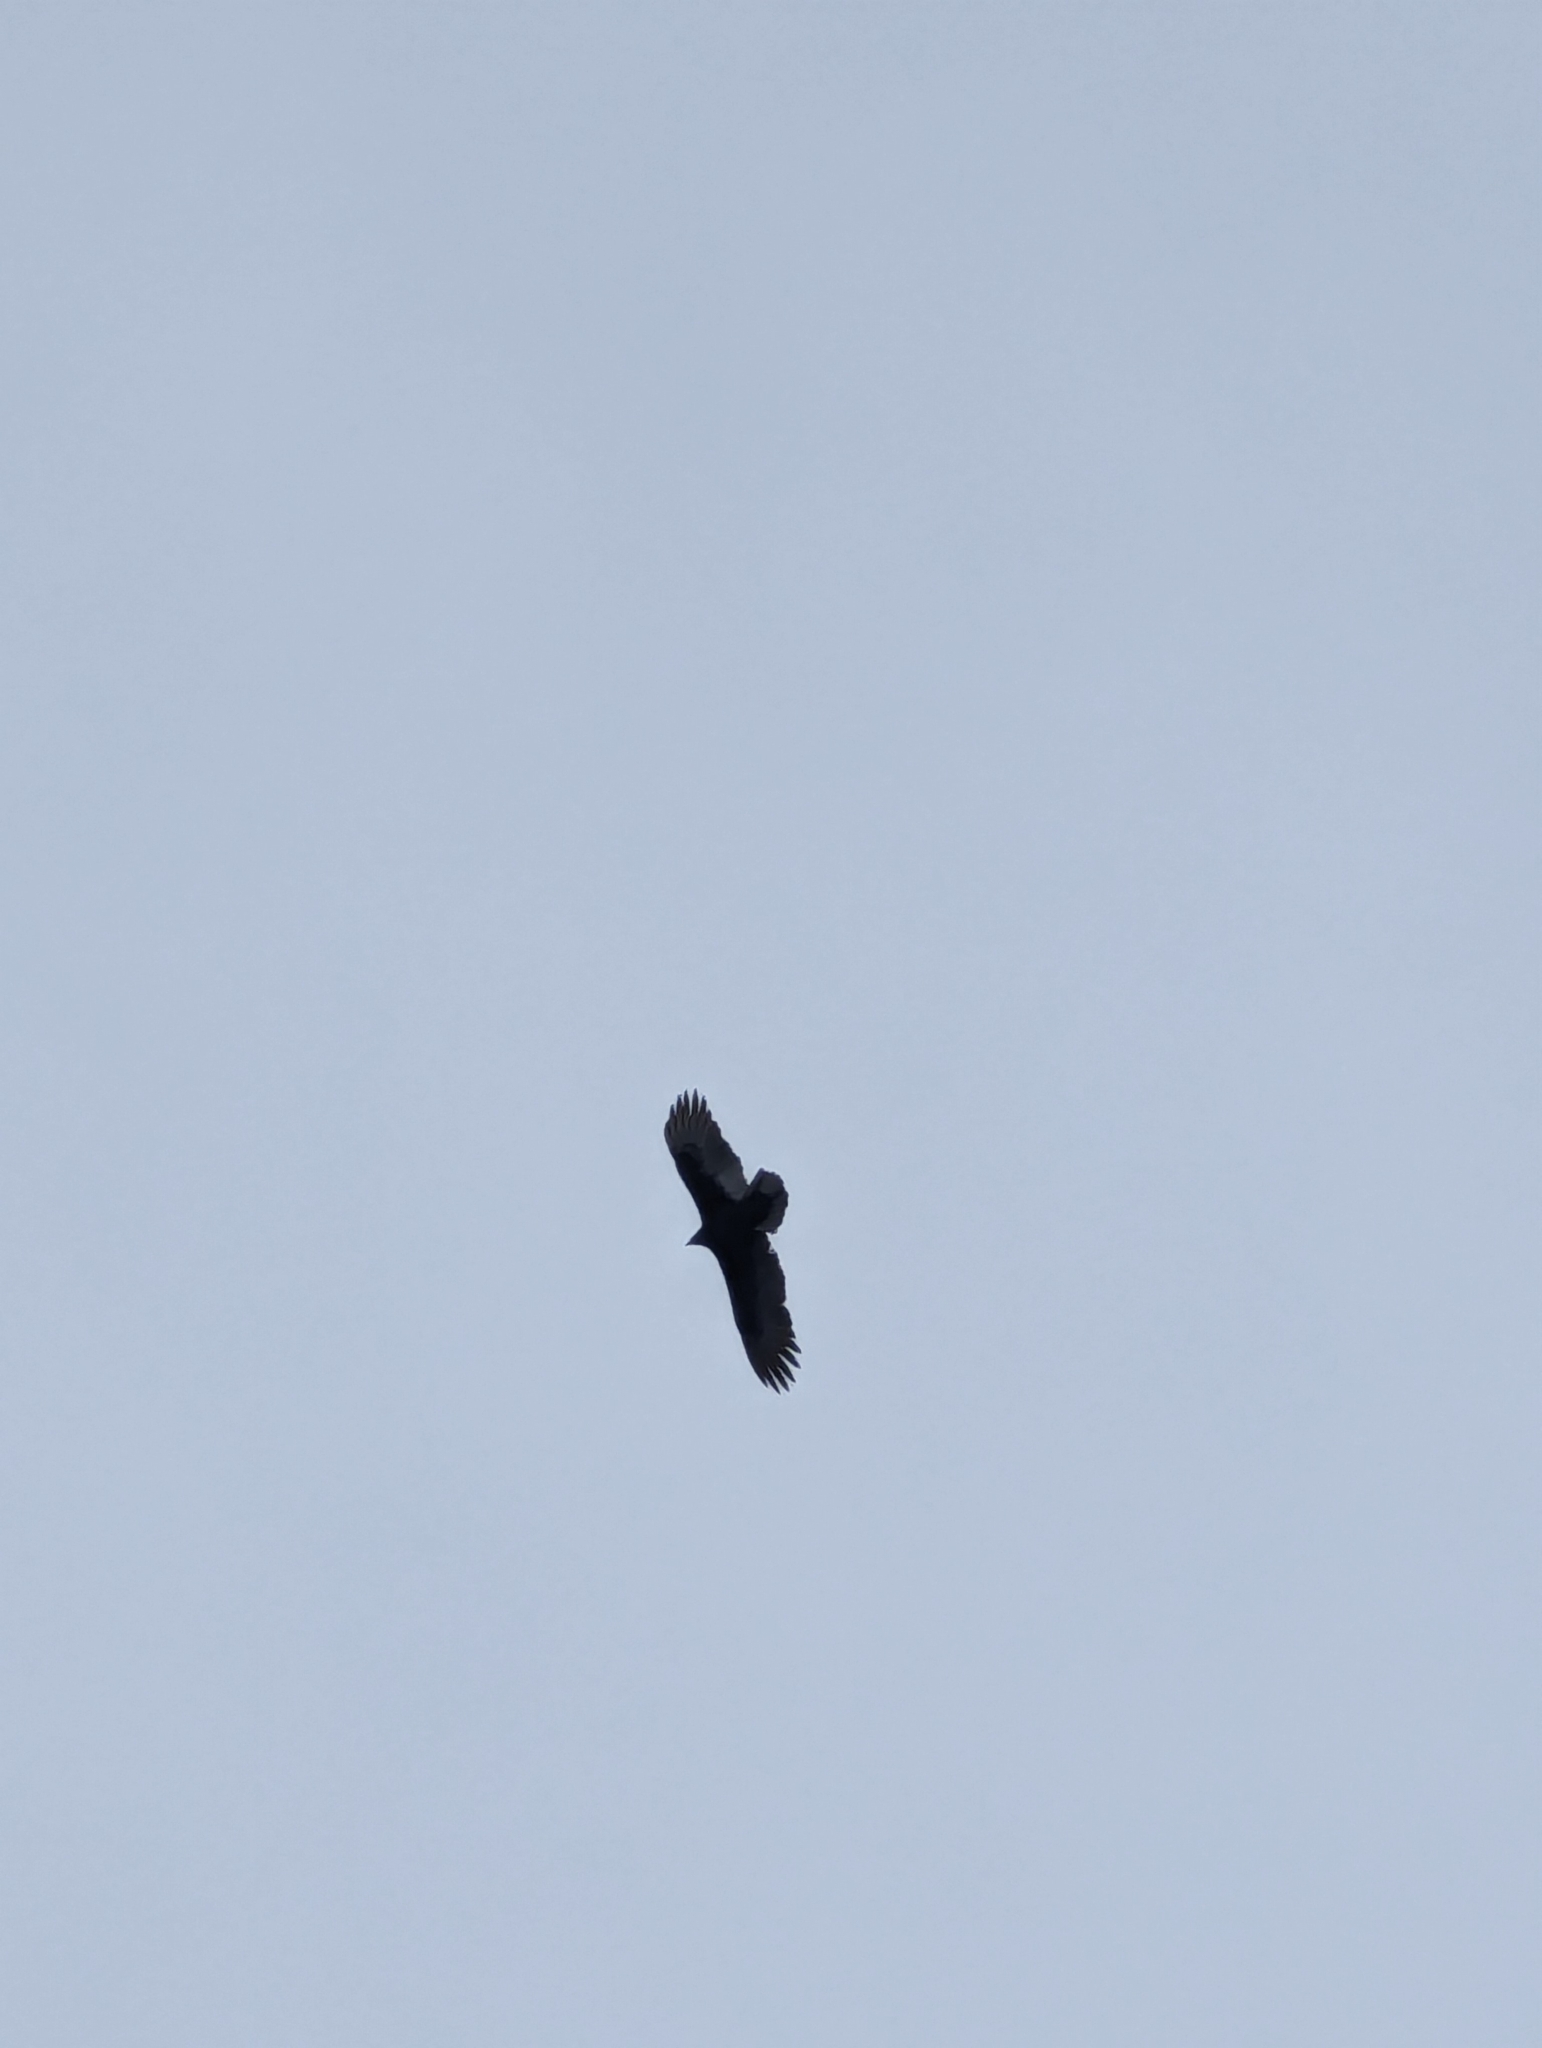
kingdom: Animalia
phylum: Chordata
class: Aves
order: Accipitriformes
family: Cathartidae
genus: Cathartes
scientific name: Cathartes aura
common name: Turkey vulture
